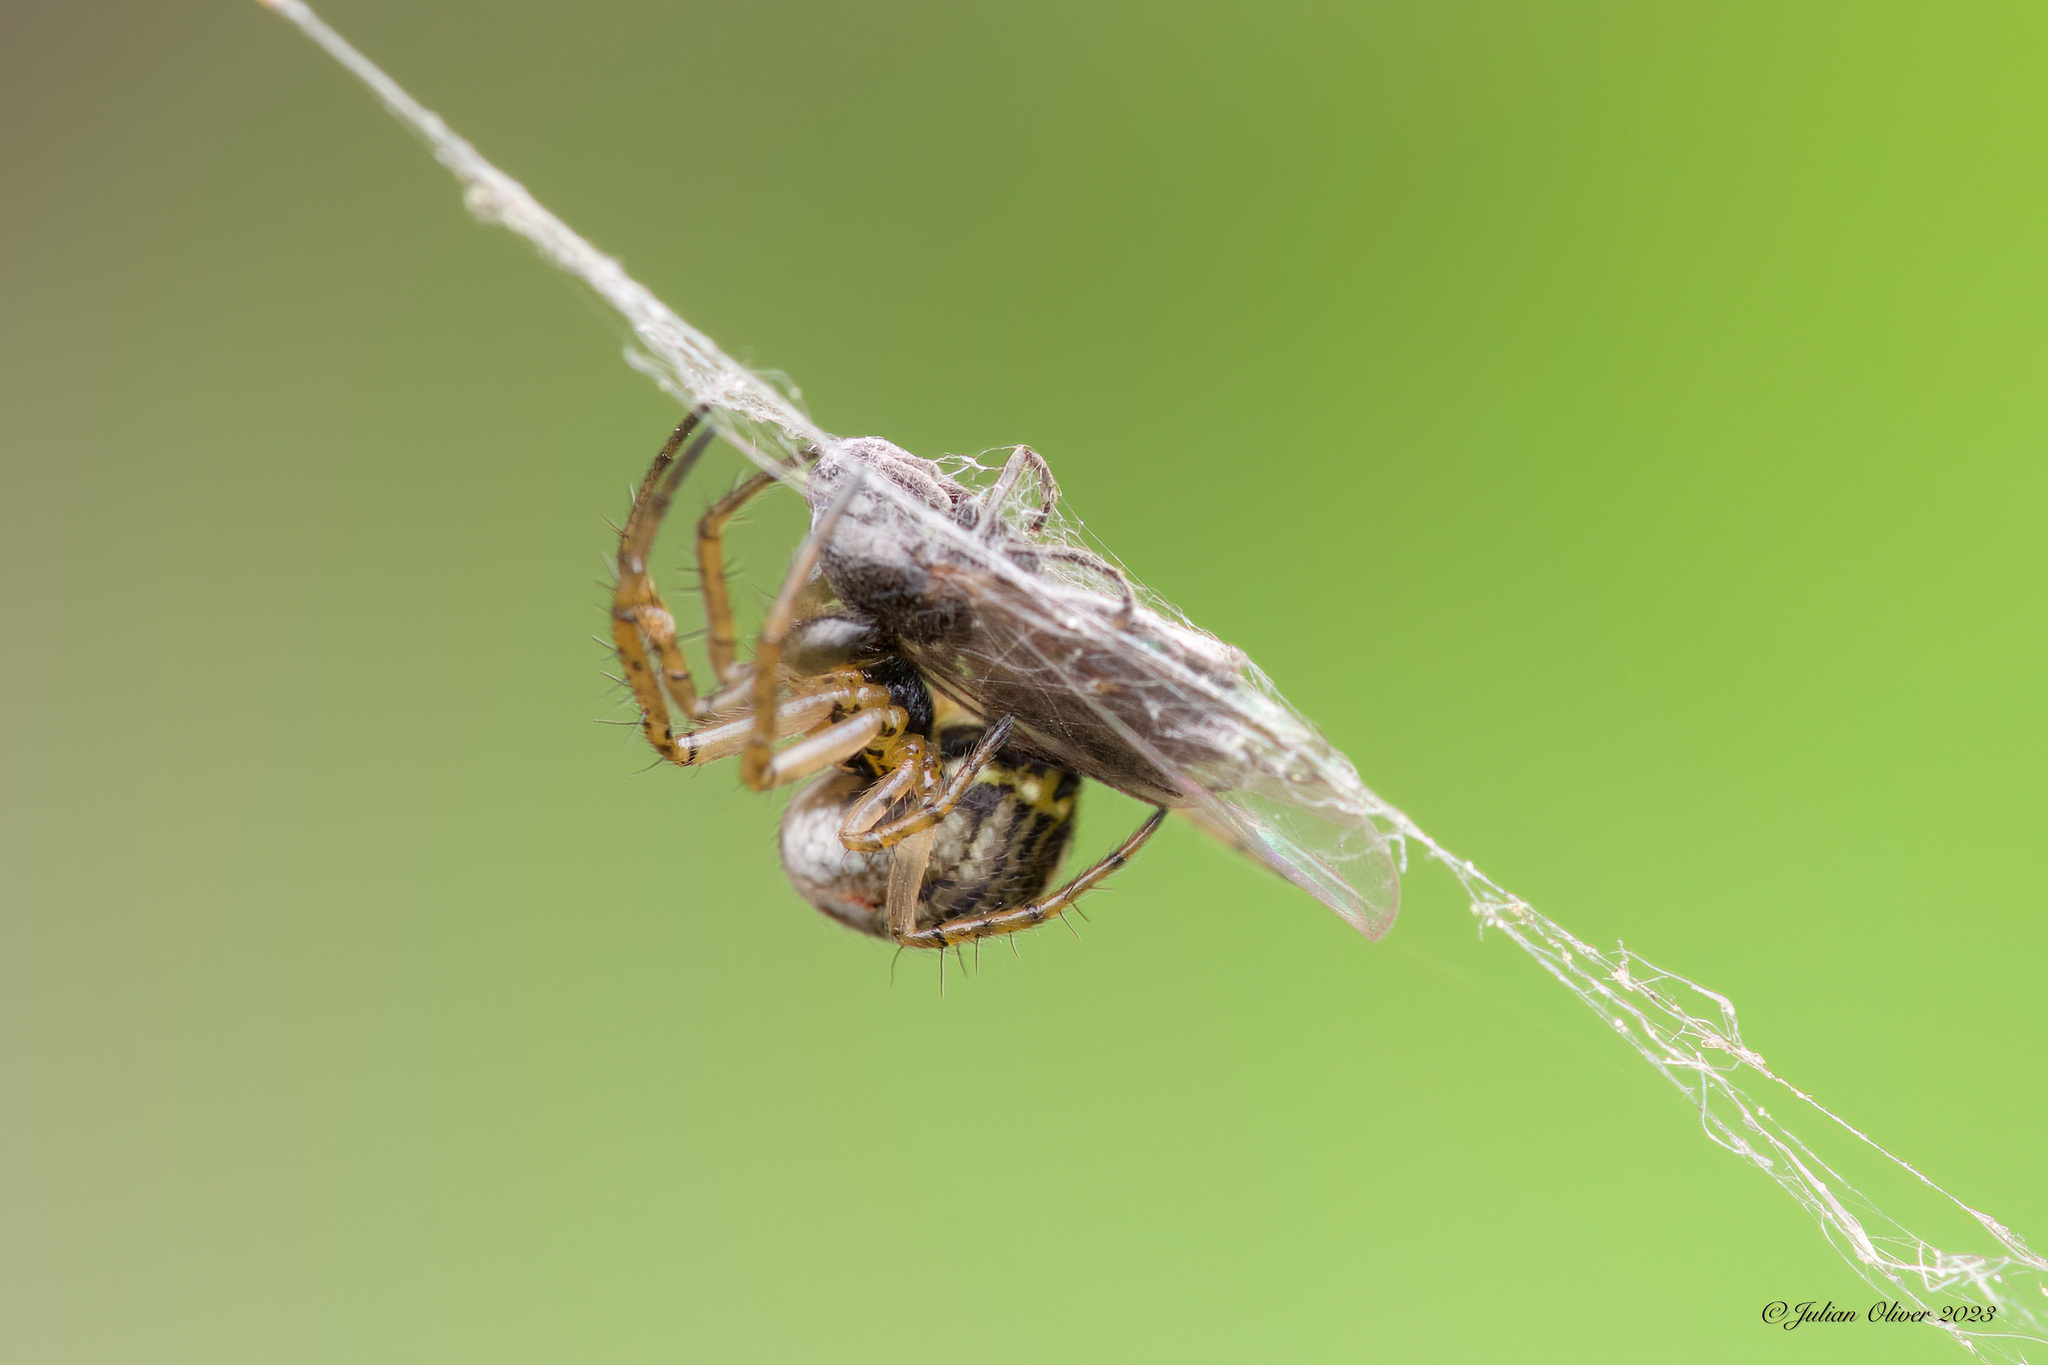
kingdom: Animalia
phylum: Arthropoda
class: Arachnida
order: Araneae
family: Araneidae
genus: Mangora
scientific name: Mangora acalypha
